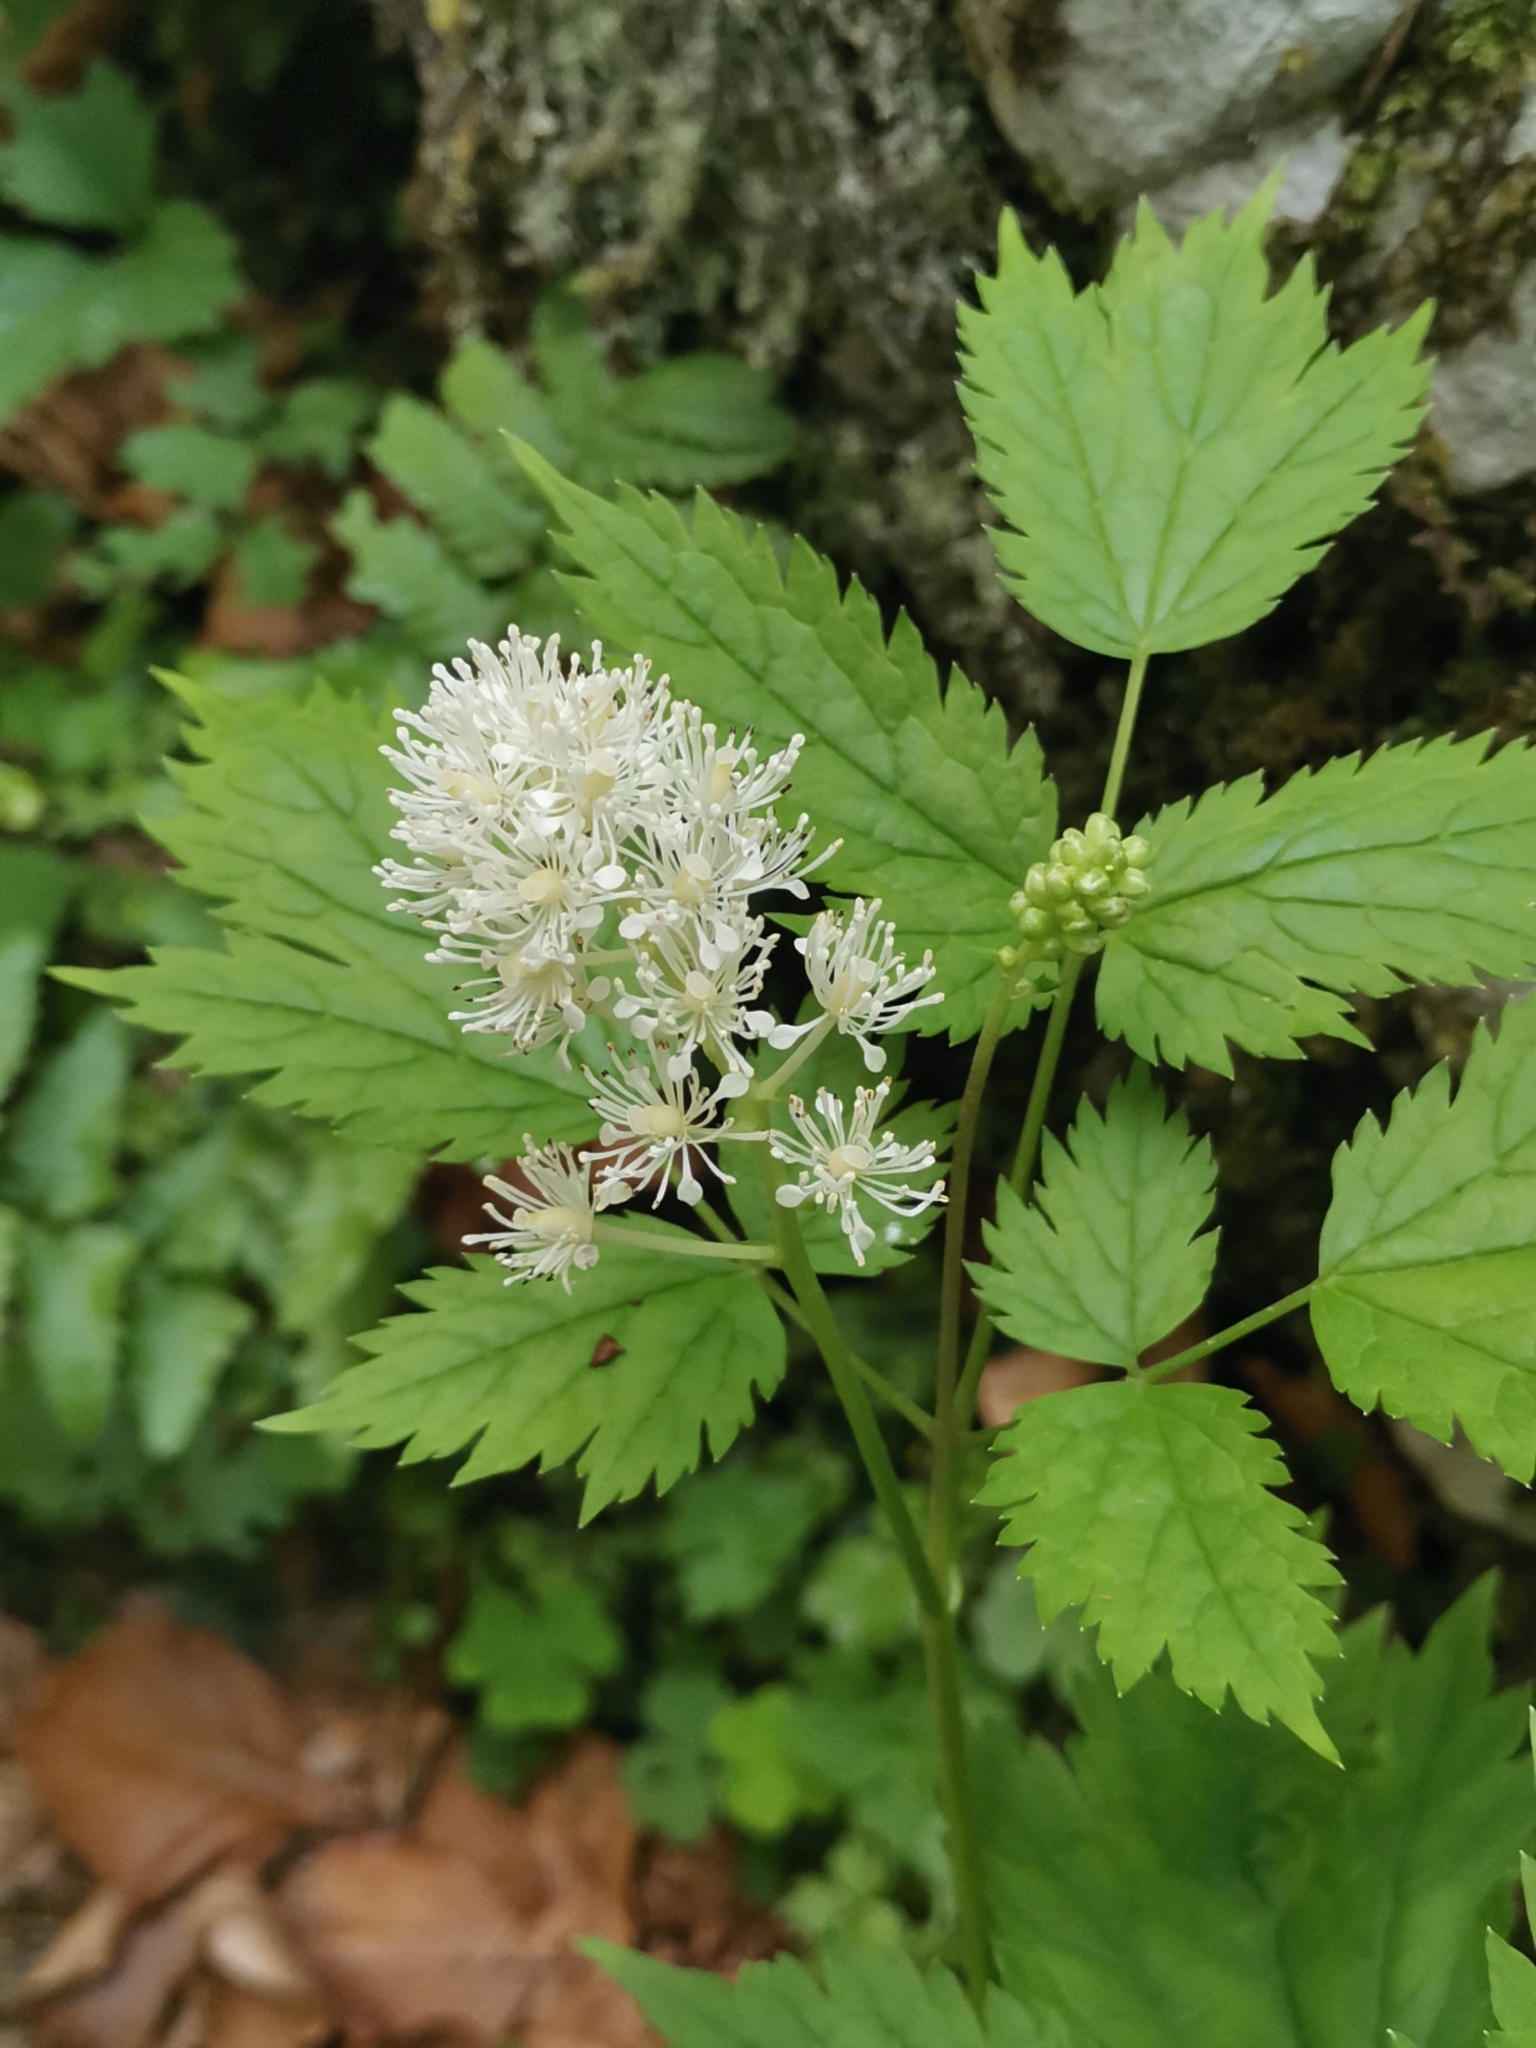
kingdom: Plantae
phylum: Tracheophyta
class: Magnoliopsida
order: Ranunculales
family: Ranunculaceae
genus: Actaea
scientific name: Actaea spicata
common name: Baneberry
